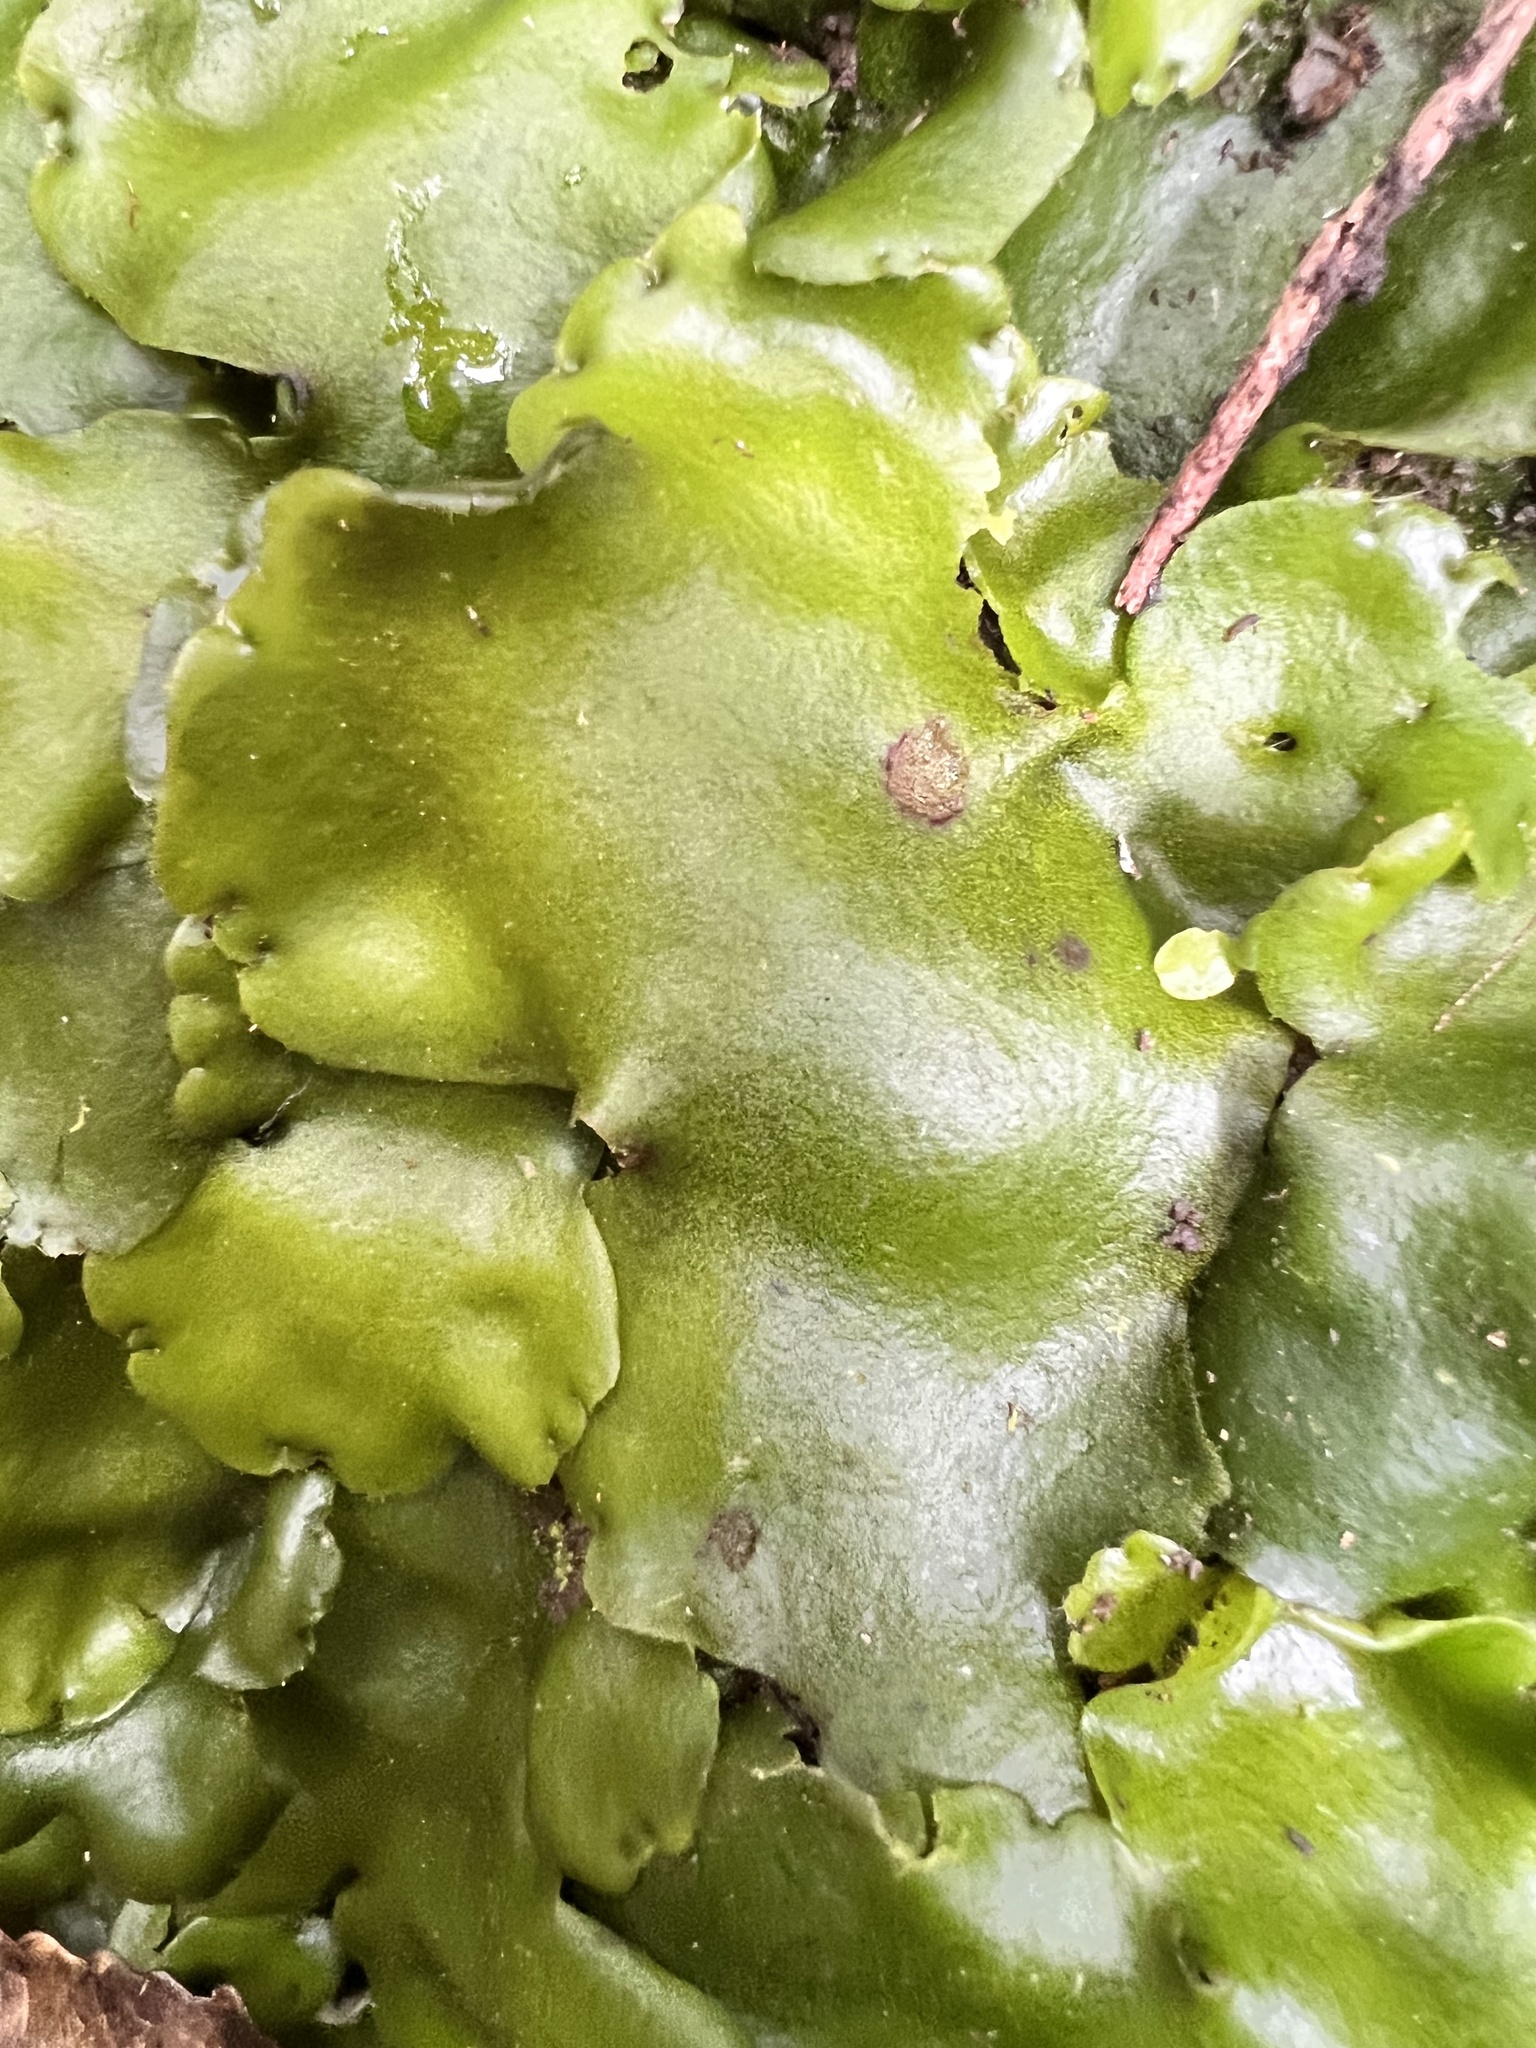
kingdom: Plantae
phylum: Marchantiophyta
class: Marchantiopsida
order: Marchantiales
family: Monocleaceae
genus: Monoclea
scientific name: Monoclea forsteri
